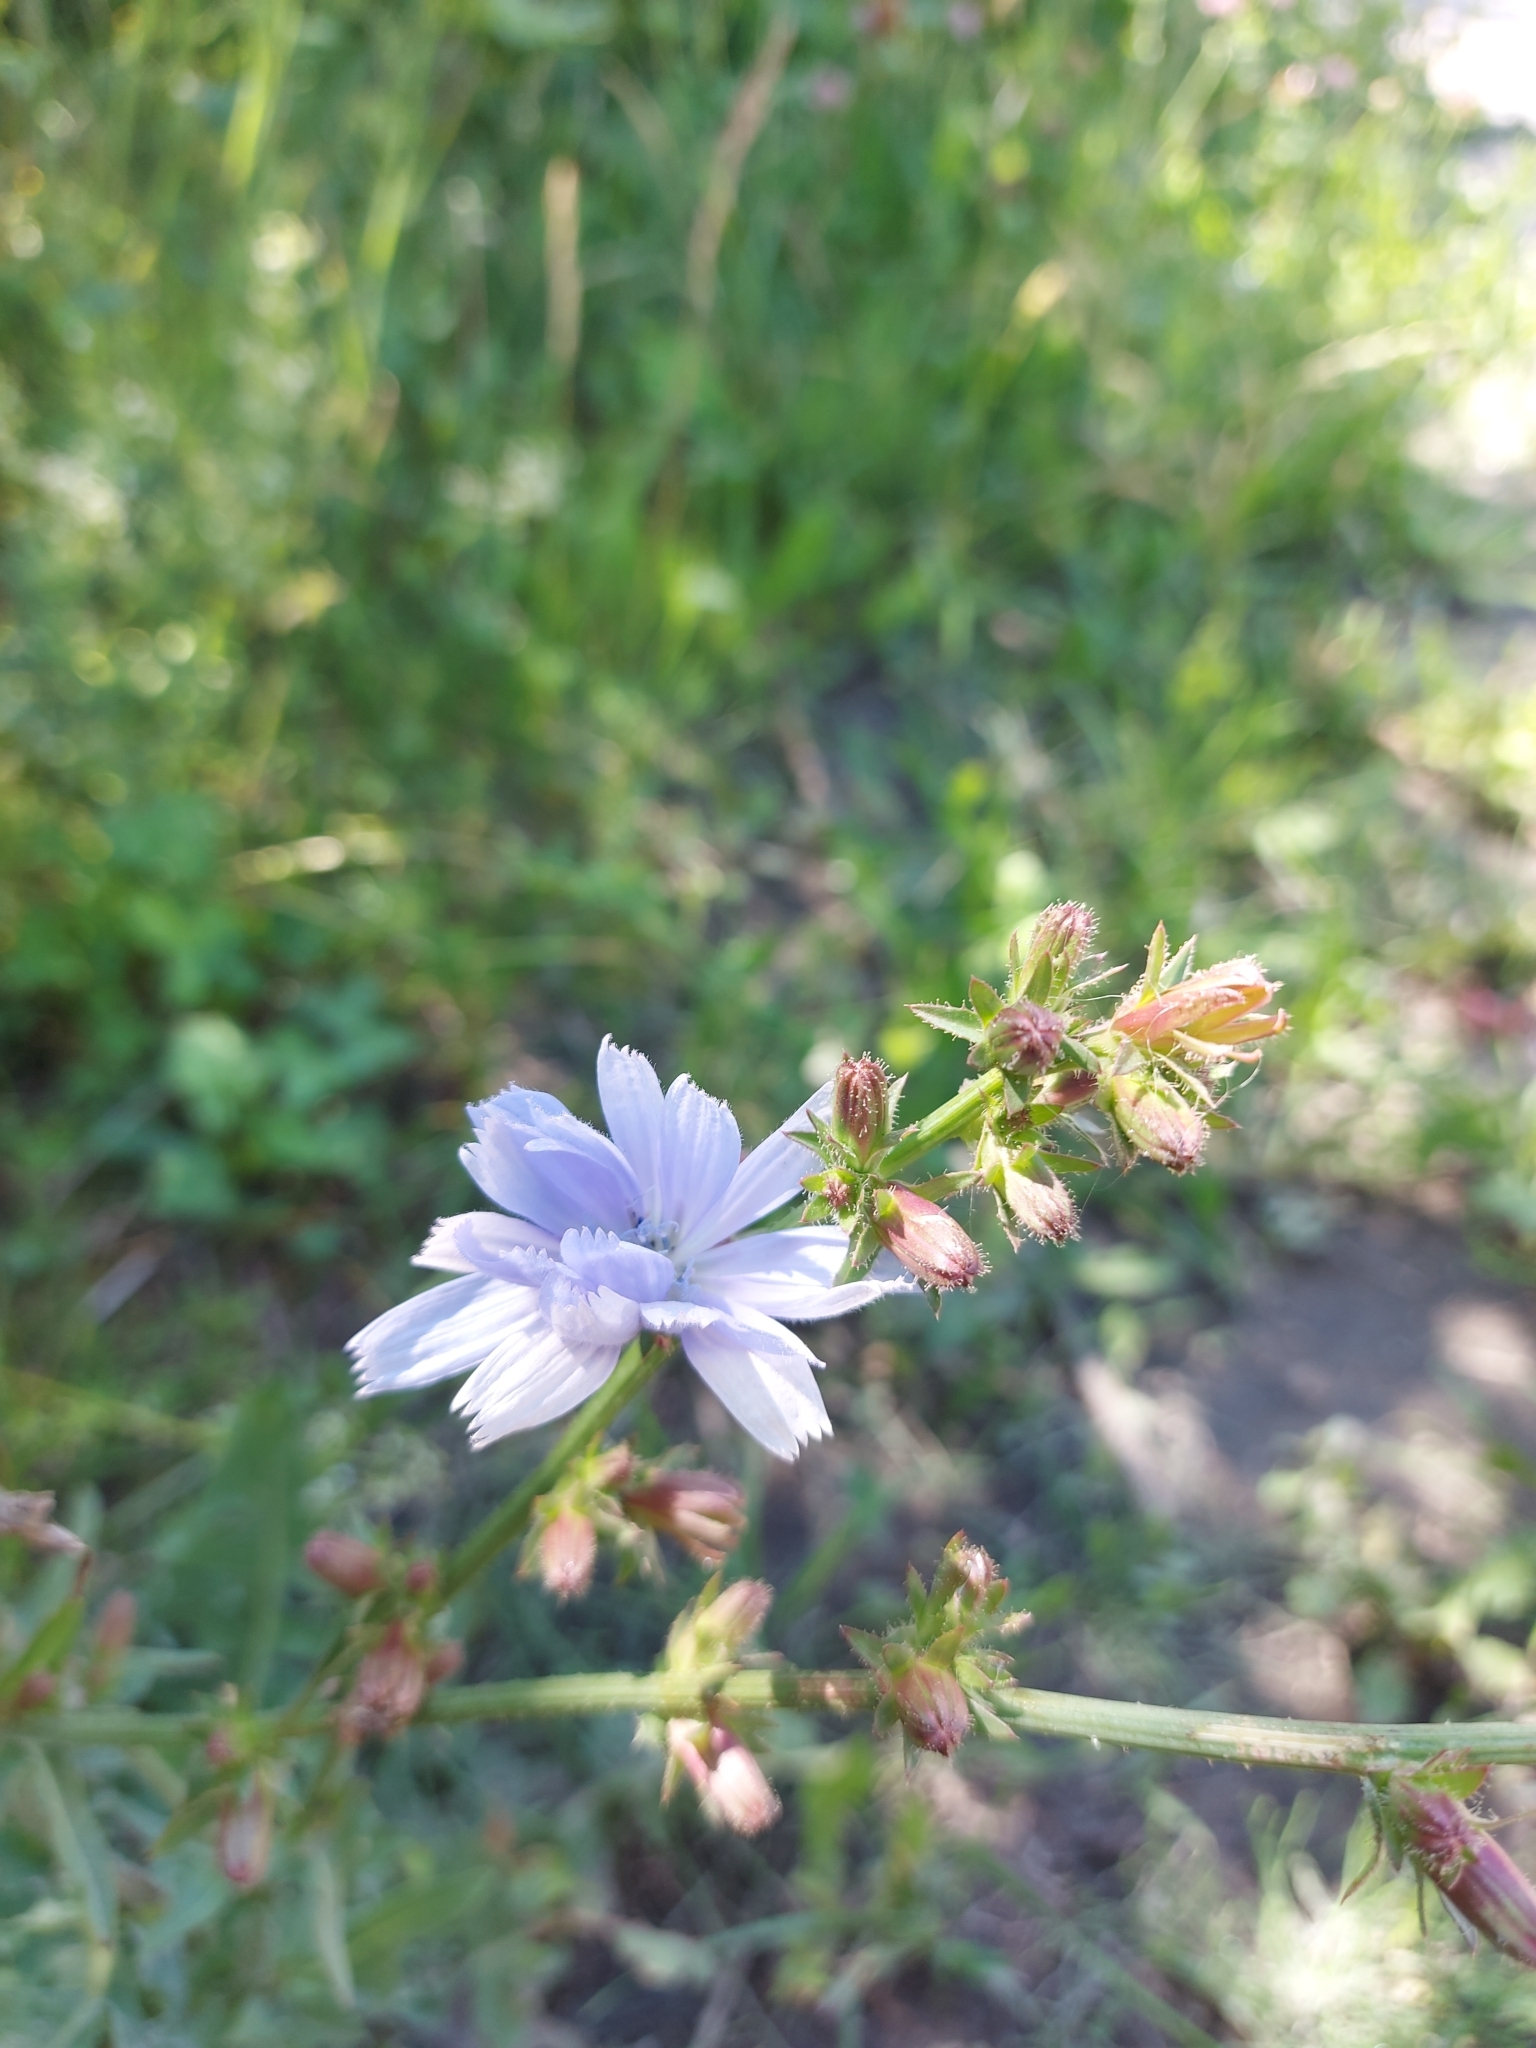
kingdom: Plantae
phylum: Tracheophyta
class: Magnoliopsida
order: Asterales
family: Asteraceae
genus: Cichorium
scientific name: Cichorium intybus
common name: Chicory
